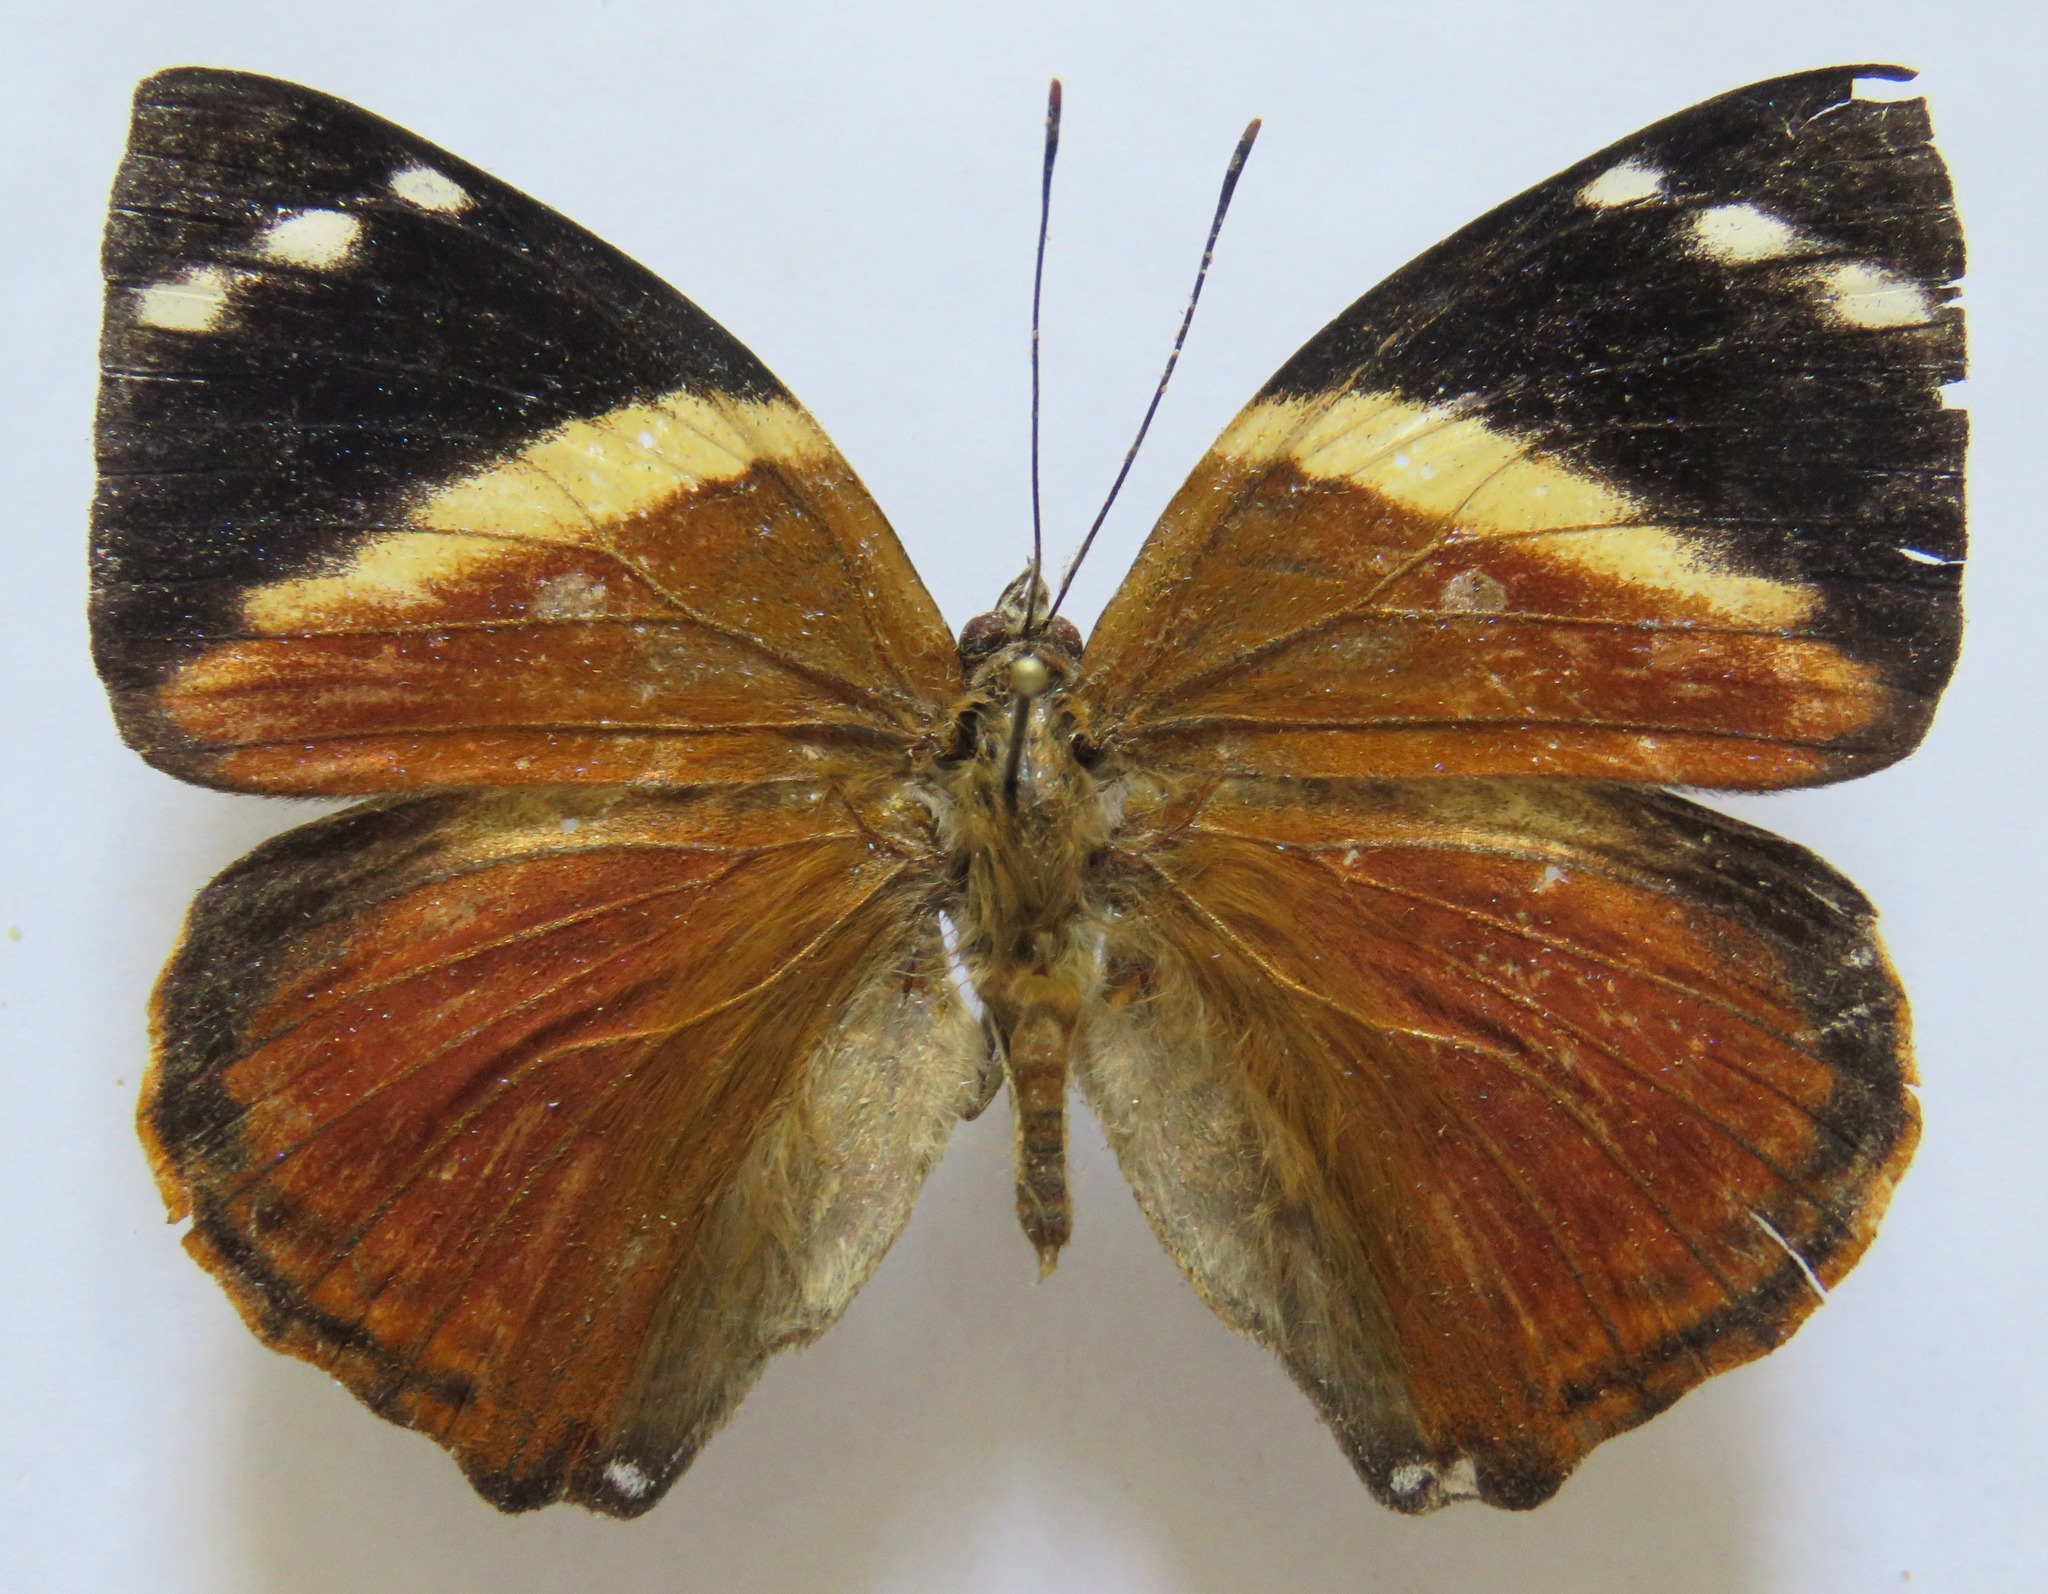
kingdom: Animalia
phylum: Arthropoda
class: Insecta
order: Lepidoptera
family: Nymphalidae
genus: Smyrna
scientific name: Smyrna blomfildia
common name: Blomfild's beauty
